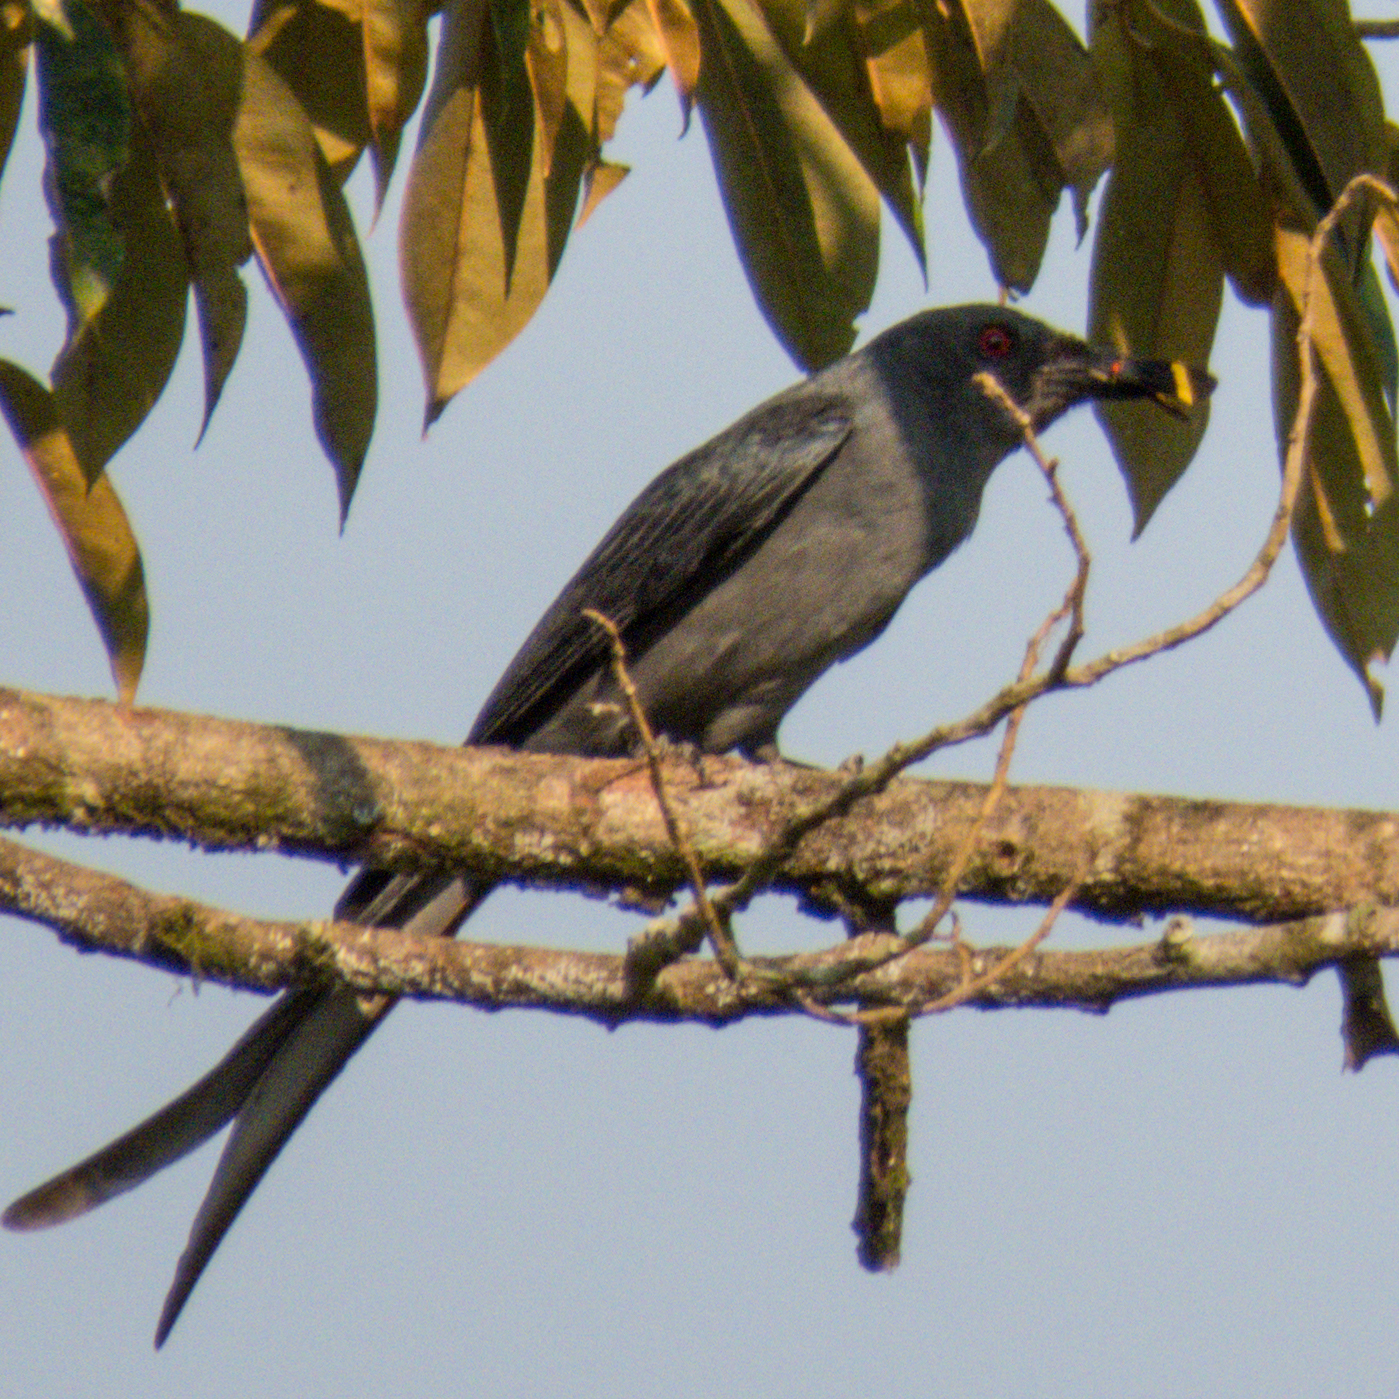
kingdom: Animalia
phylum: Chordata
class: Aves
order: Passeriformes
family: Dicruridae
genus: Dicrurus
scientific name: Dicrurus leucophaeus
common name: Ashy drongo
